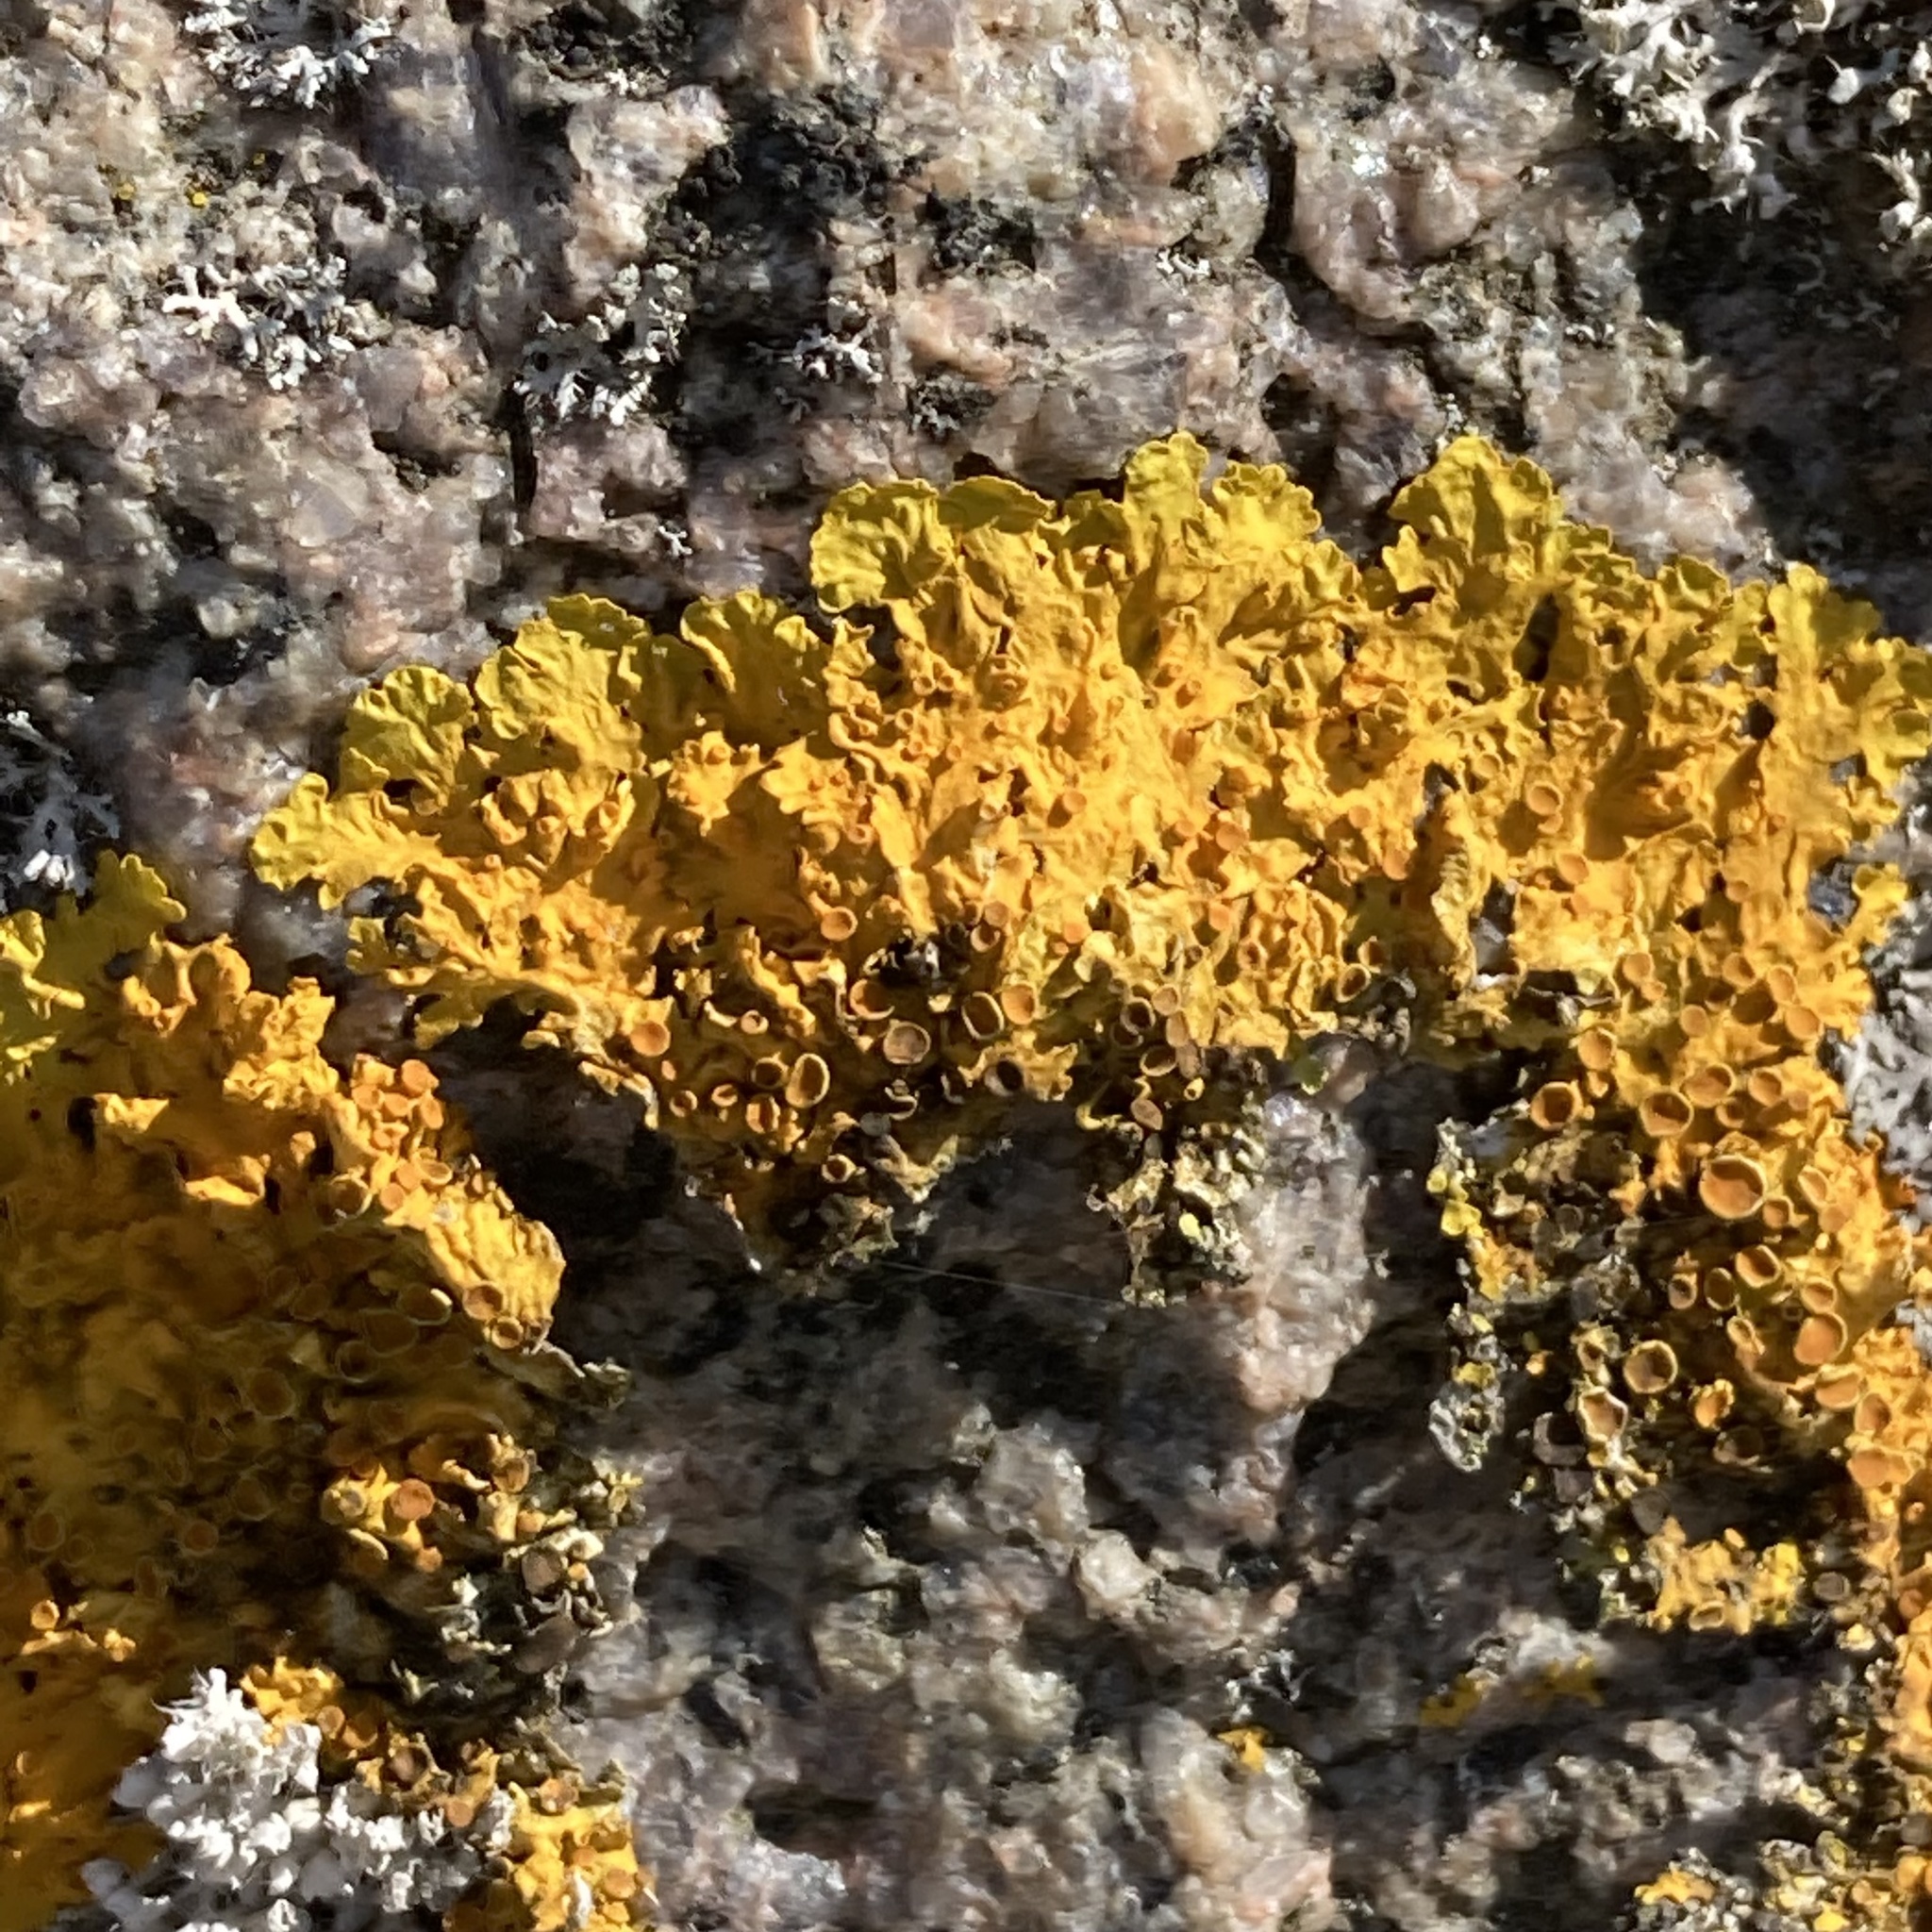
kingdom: Fungi
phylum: Ascomycota
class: Lecanoromycetes
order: Teloschistales
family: Teloschistaceae
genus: Xanthoria
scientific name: Xanthoria parietina
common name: Common orange lichen
